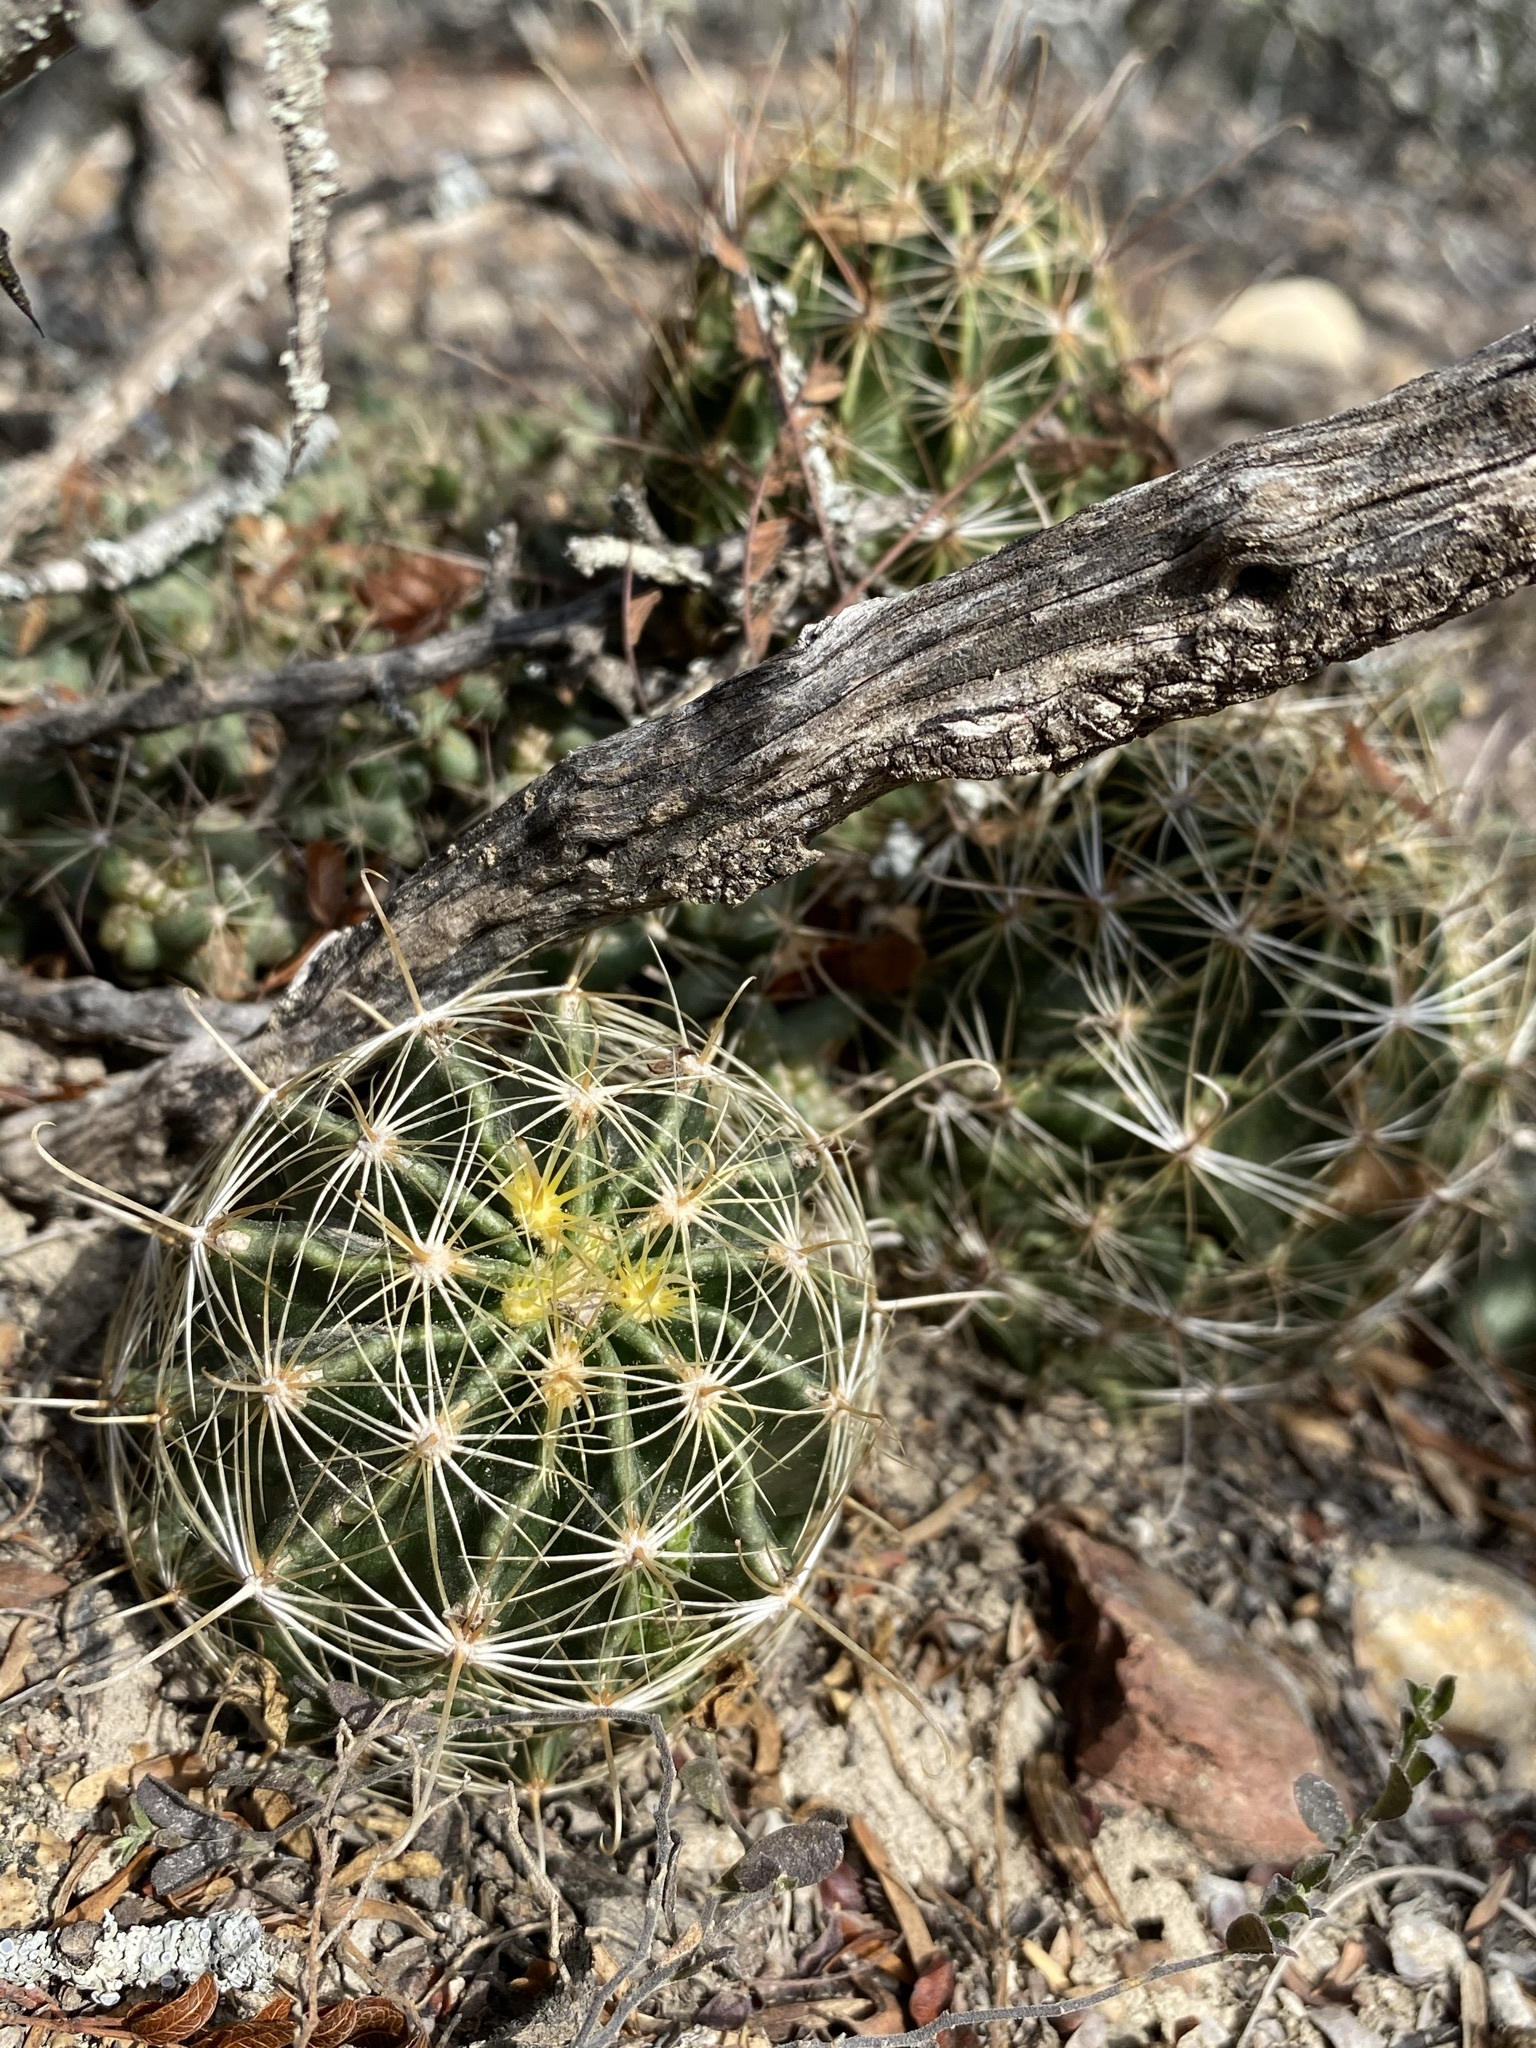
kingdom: Plantae
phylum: Tracheophyta
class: Magnoliopsida
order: Caryophyllales
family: Cactaceae
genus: Thelocactus
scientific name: Thelocactus setispinus
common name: Miniature barrel cactus
